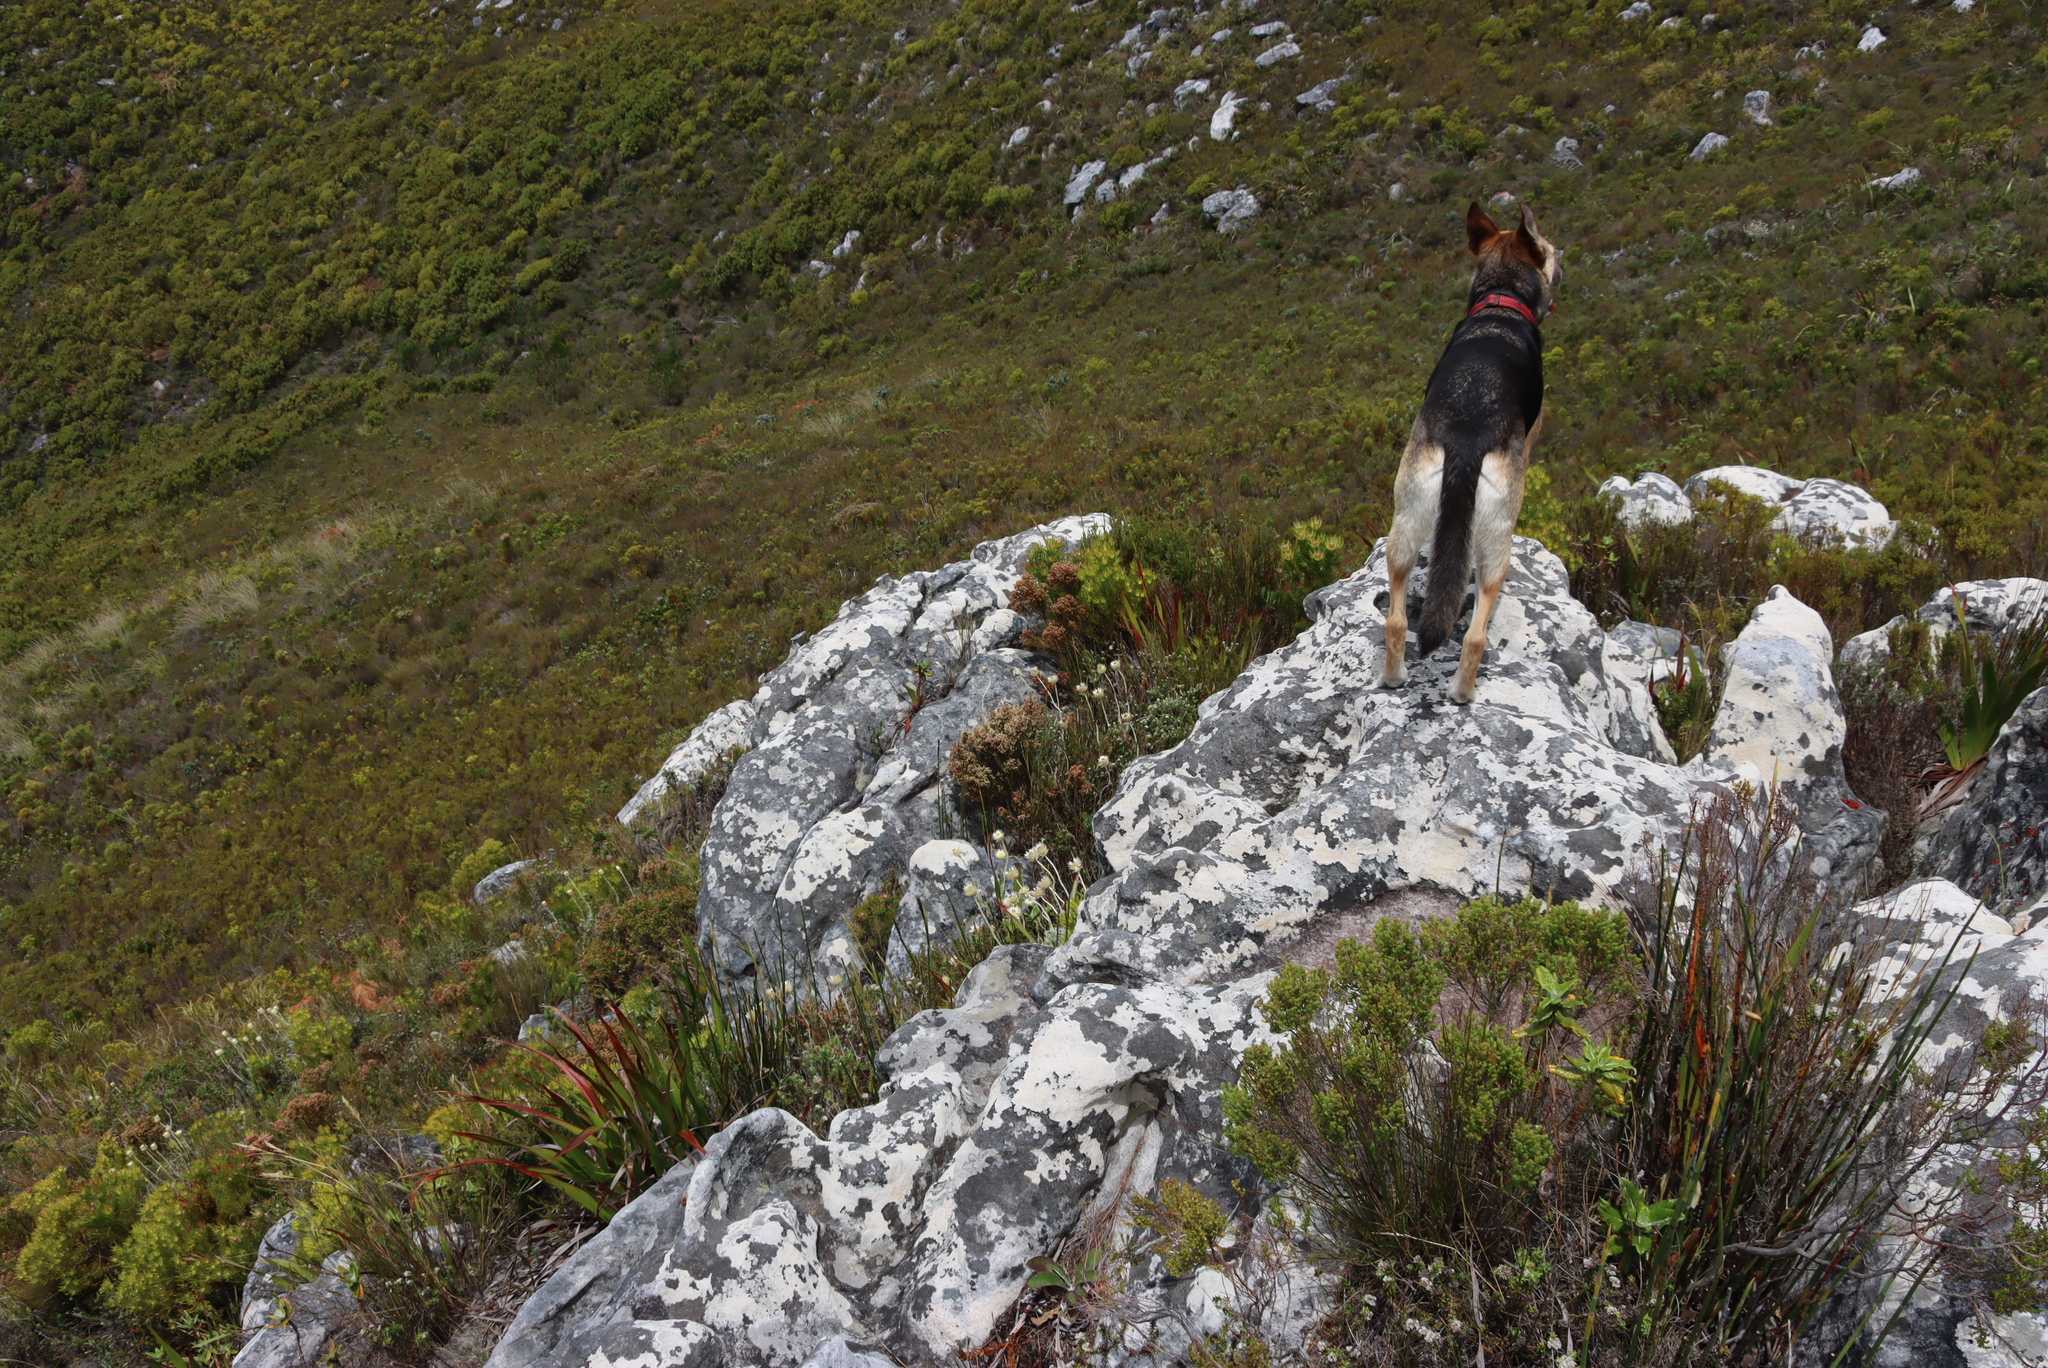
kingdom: Plantae
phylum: Tracheophyta
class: Magnoliopsida
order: Ericales
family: Ericaceae
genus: Erica
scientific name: Erica lutea
